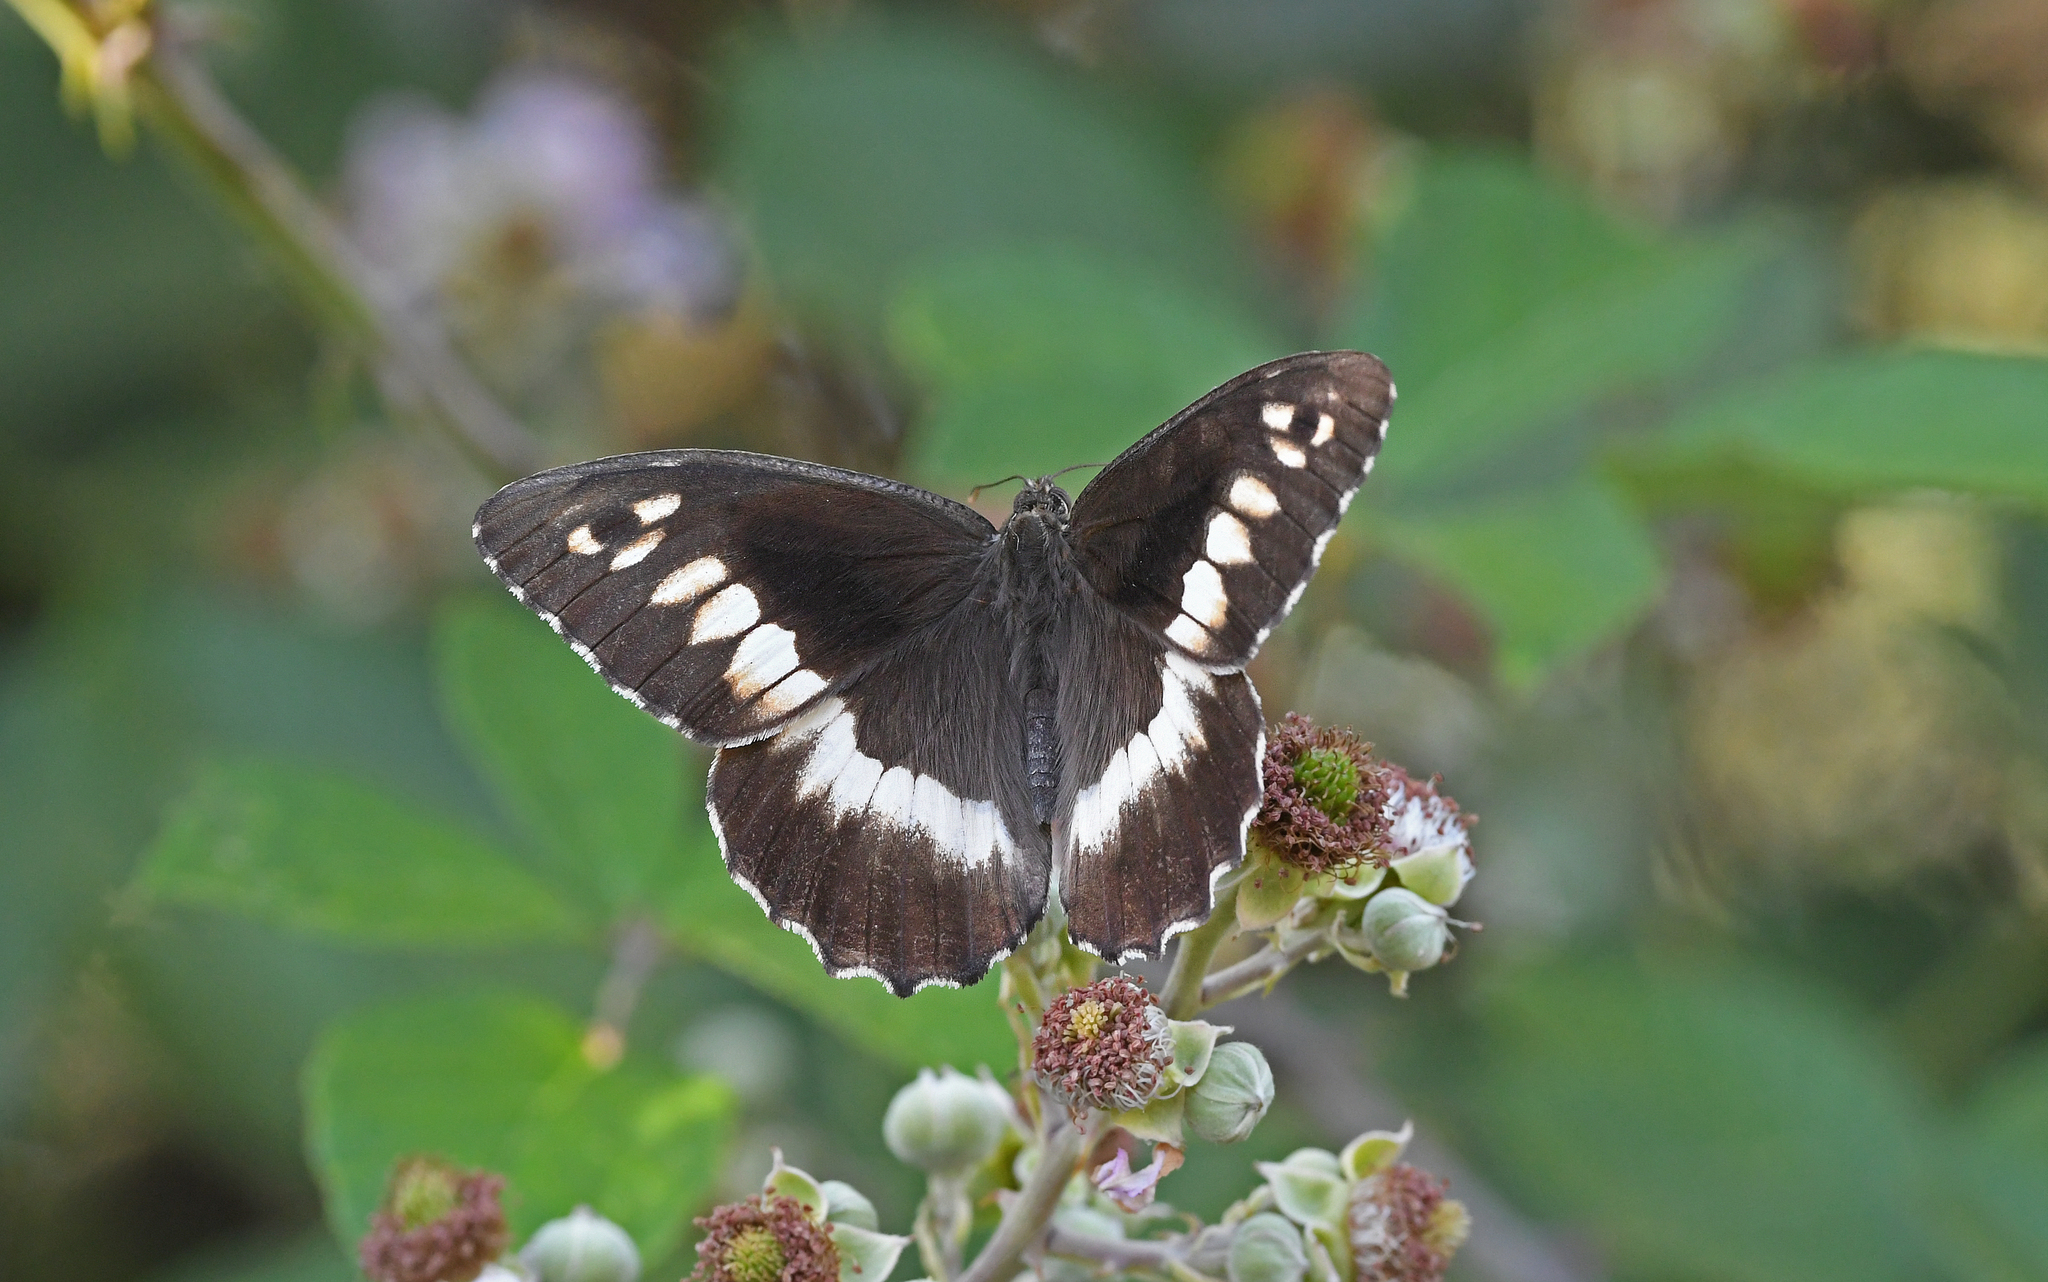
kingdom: Animalia
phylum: Arthropoda
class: Insecta
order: Lepidoptera
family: Lycaenidae
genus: Loweia
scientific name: Loweia tityrus
